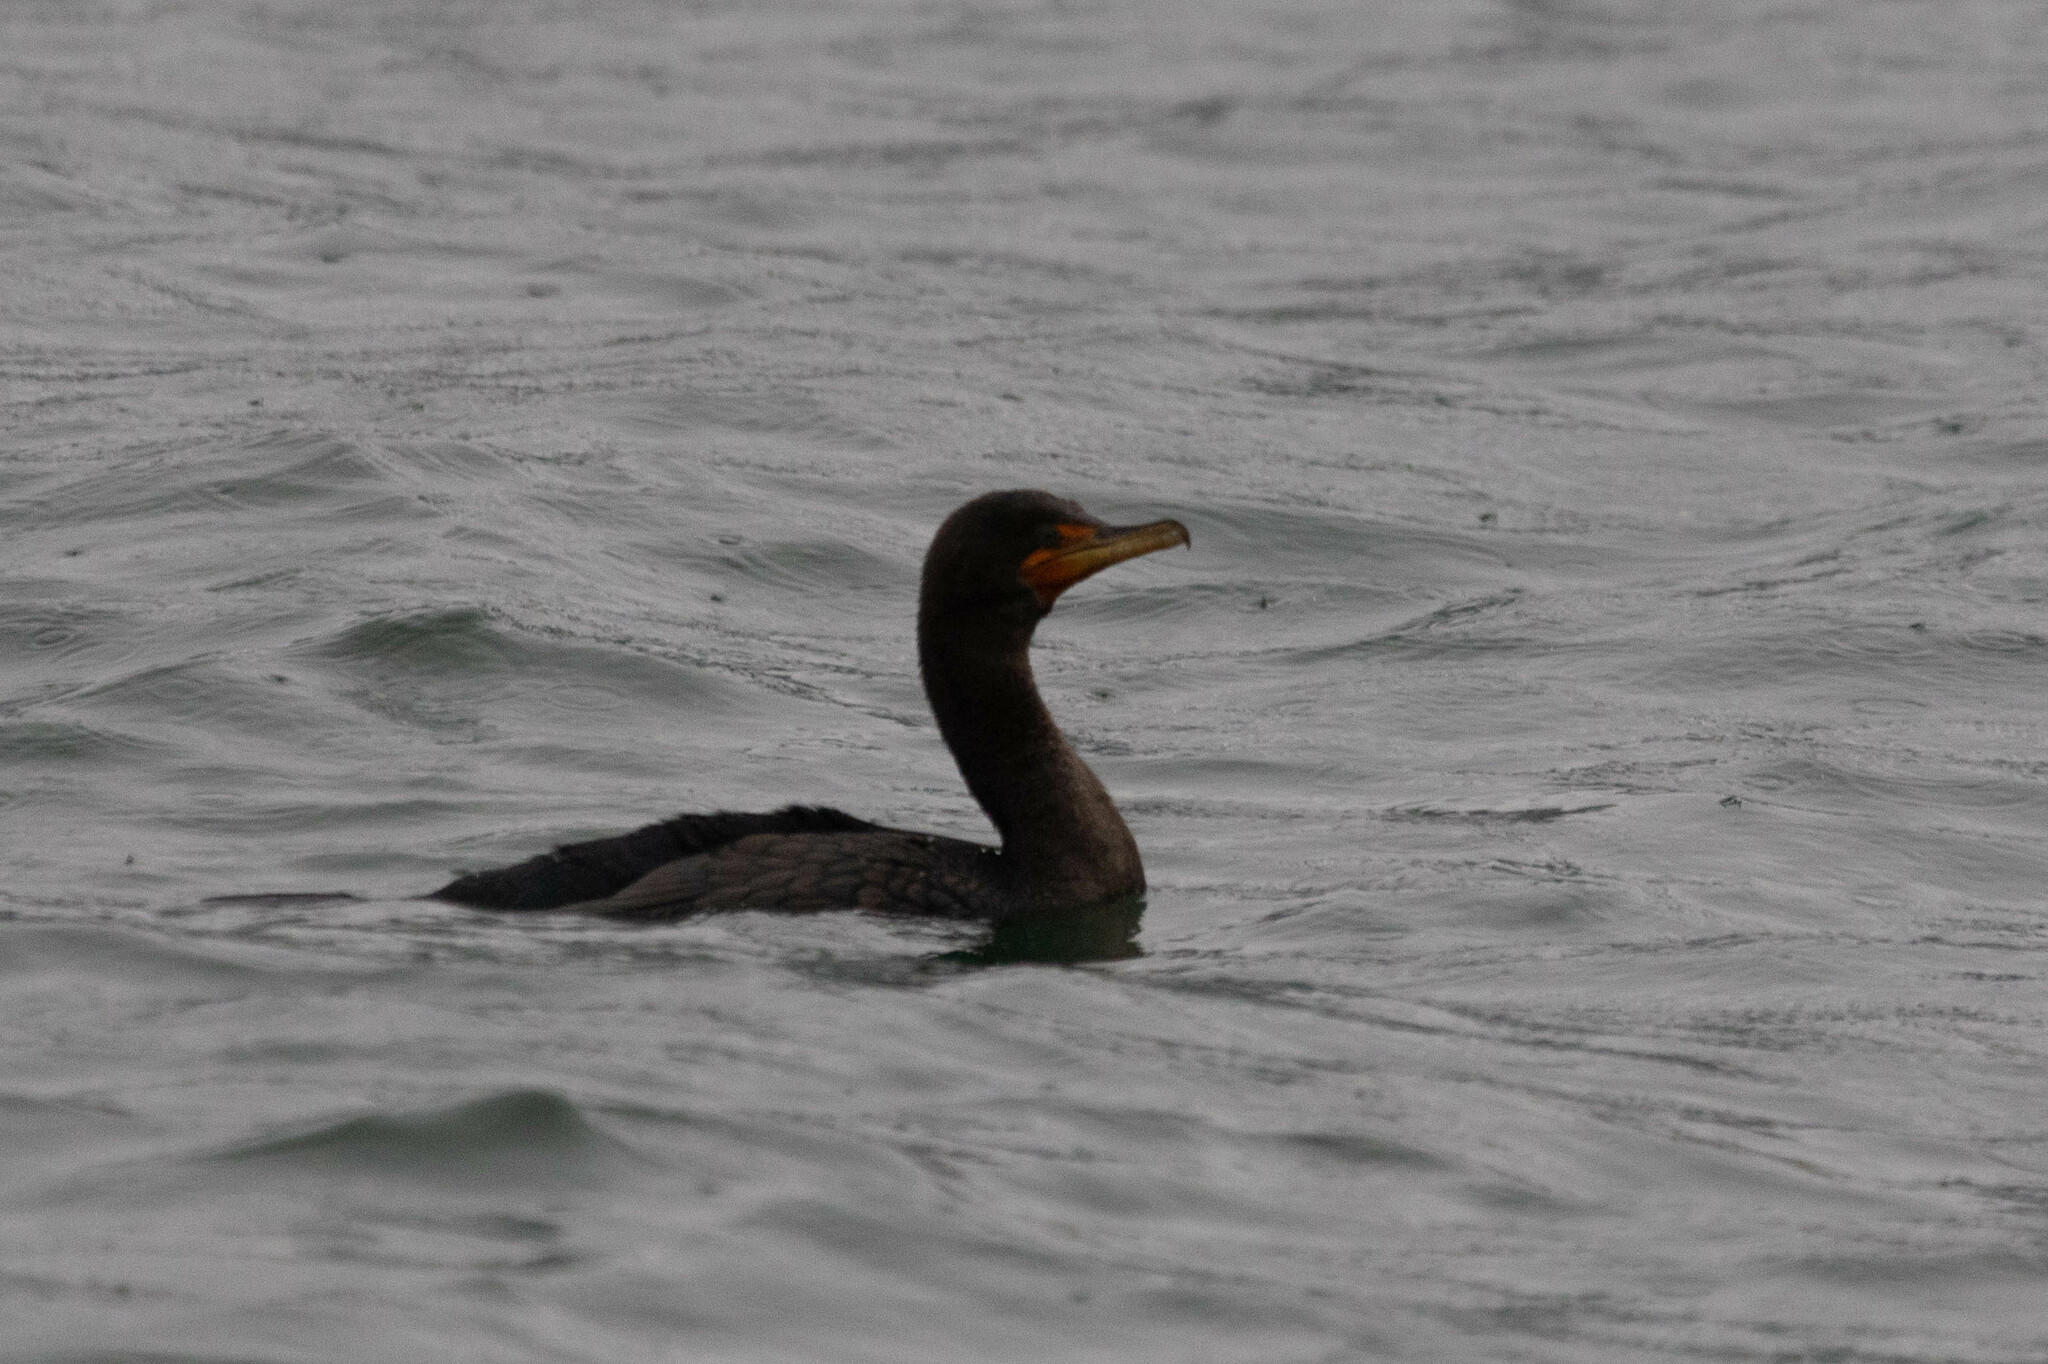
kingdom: Animalia
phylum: Chordata
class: Aves
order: Suliformes
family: Phalacrocoracidae
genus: Phalacrocorax
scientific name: Phalacrocorax auritus
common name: Double-crested cormorant
